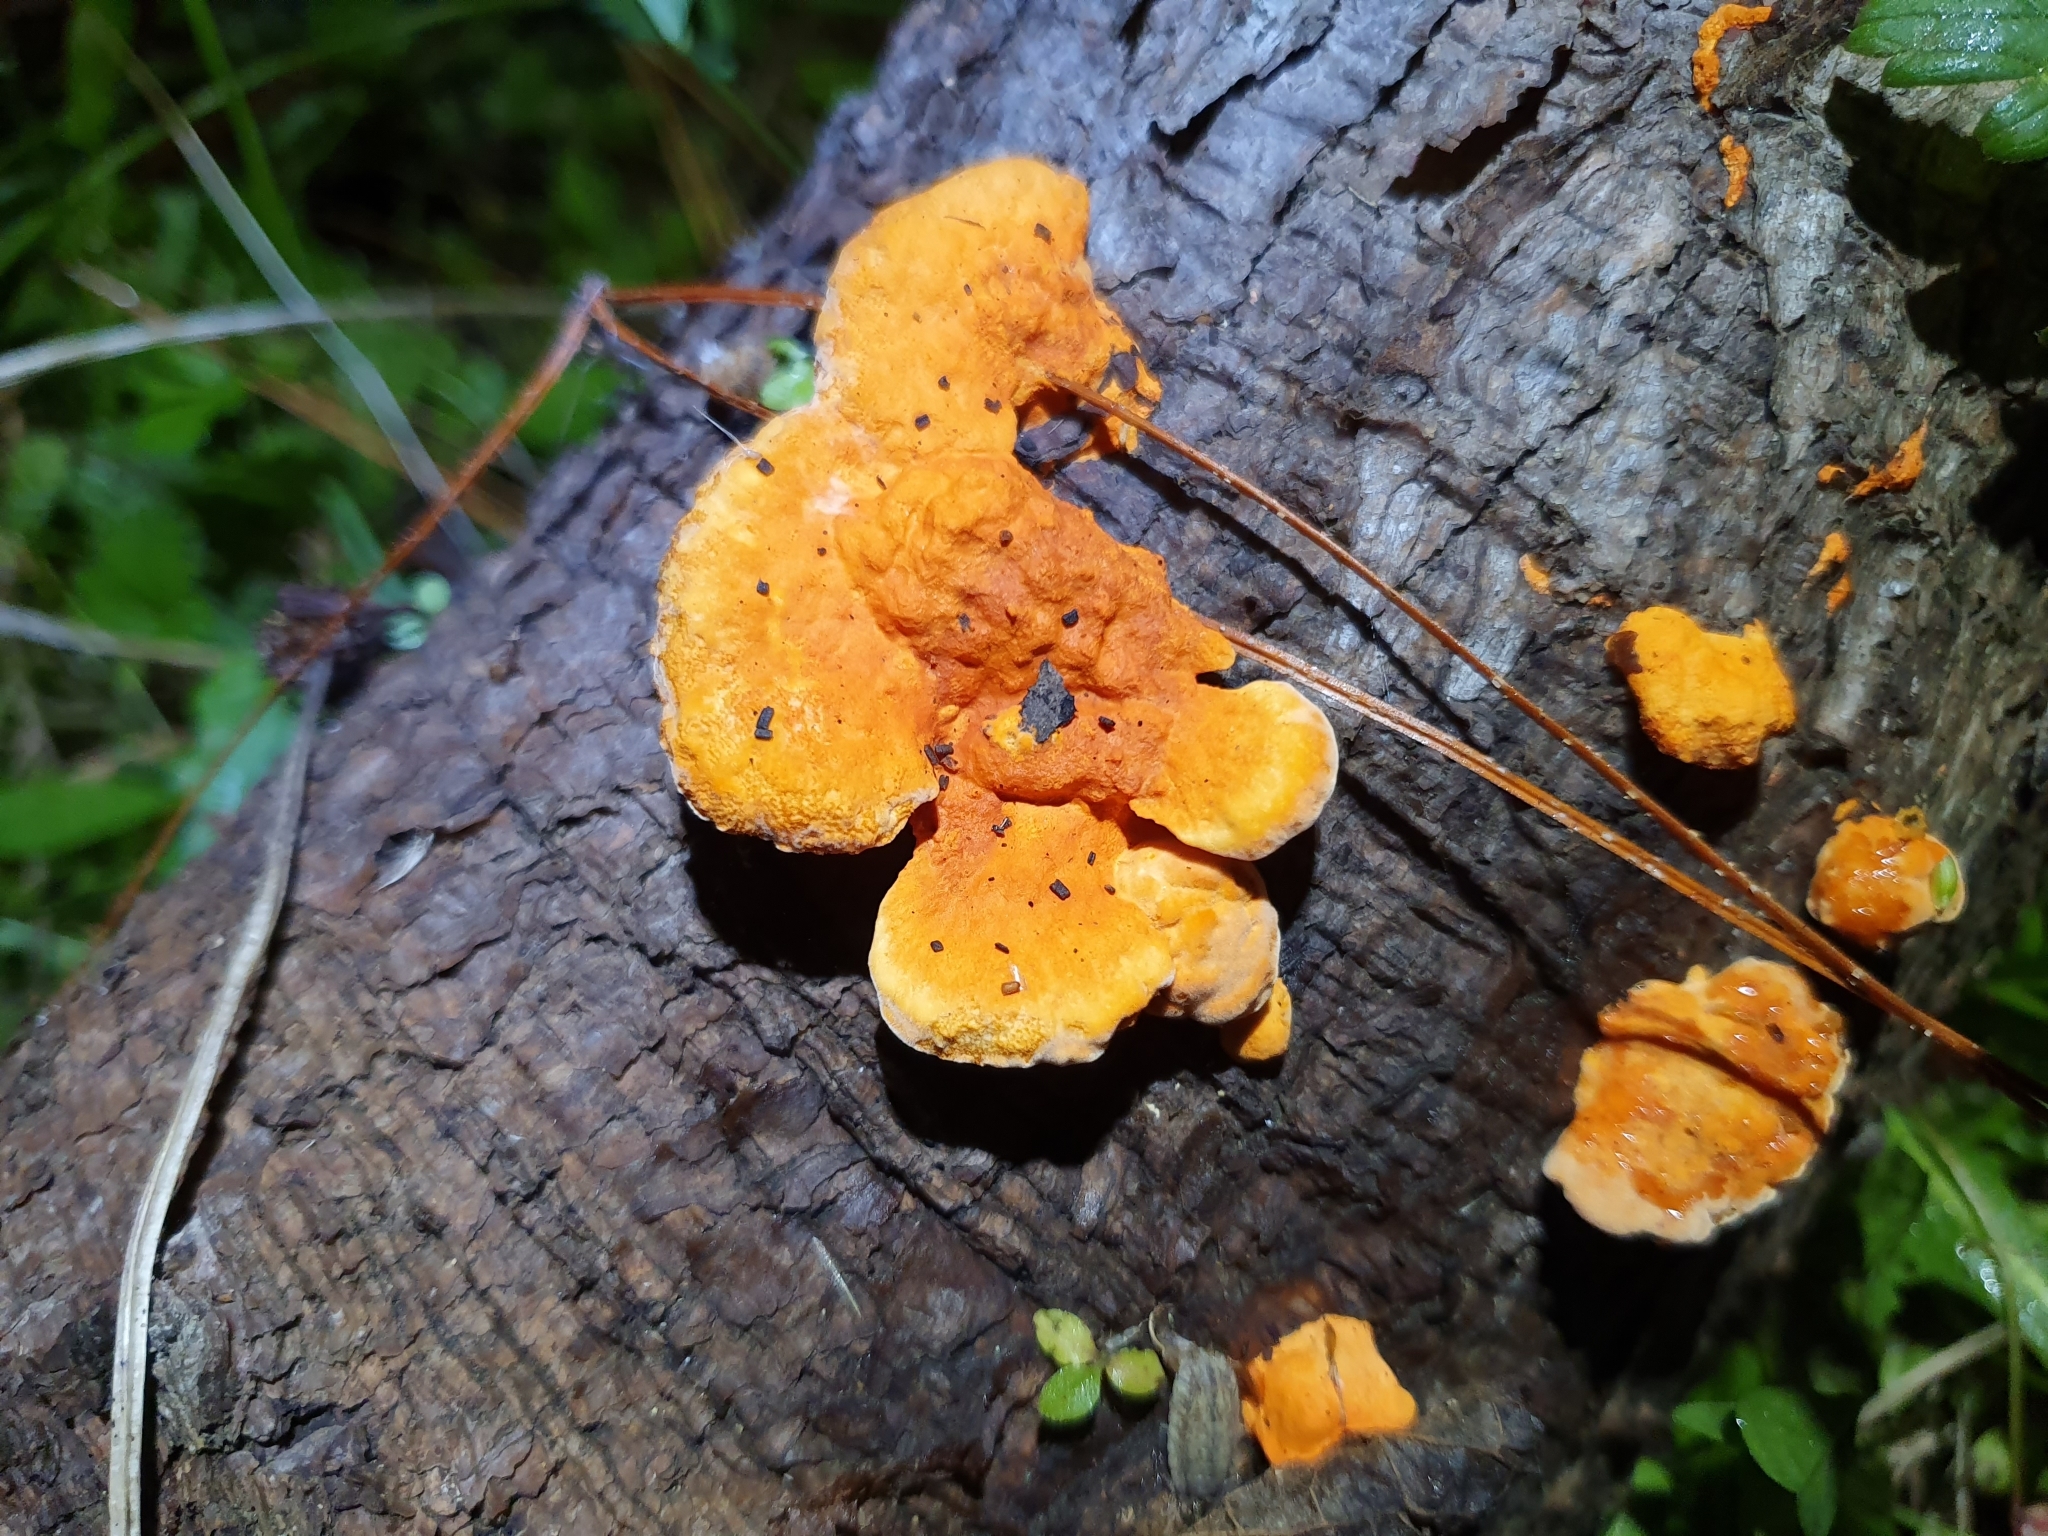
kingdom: Fungi
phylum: Basidiomycota
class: Agaricomycetes
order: Polyporales
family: Polyporaceae
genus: Trametes
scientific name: Trametes coccinea
